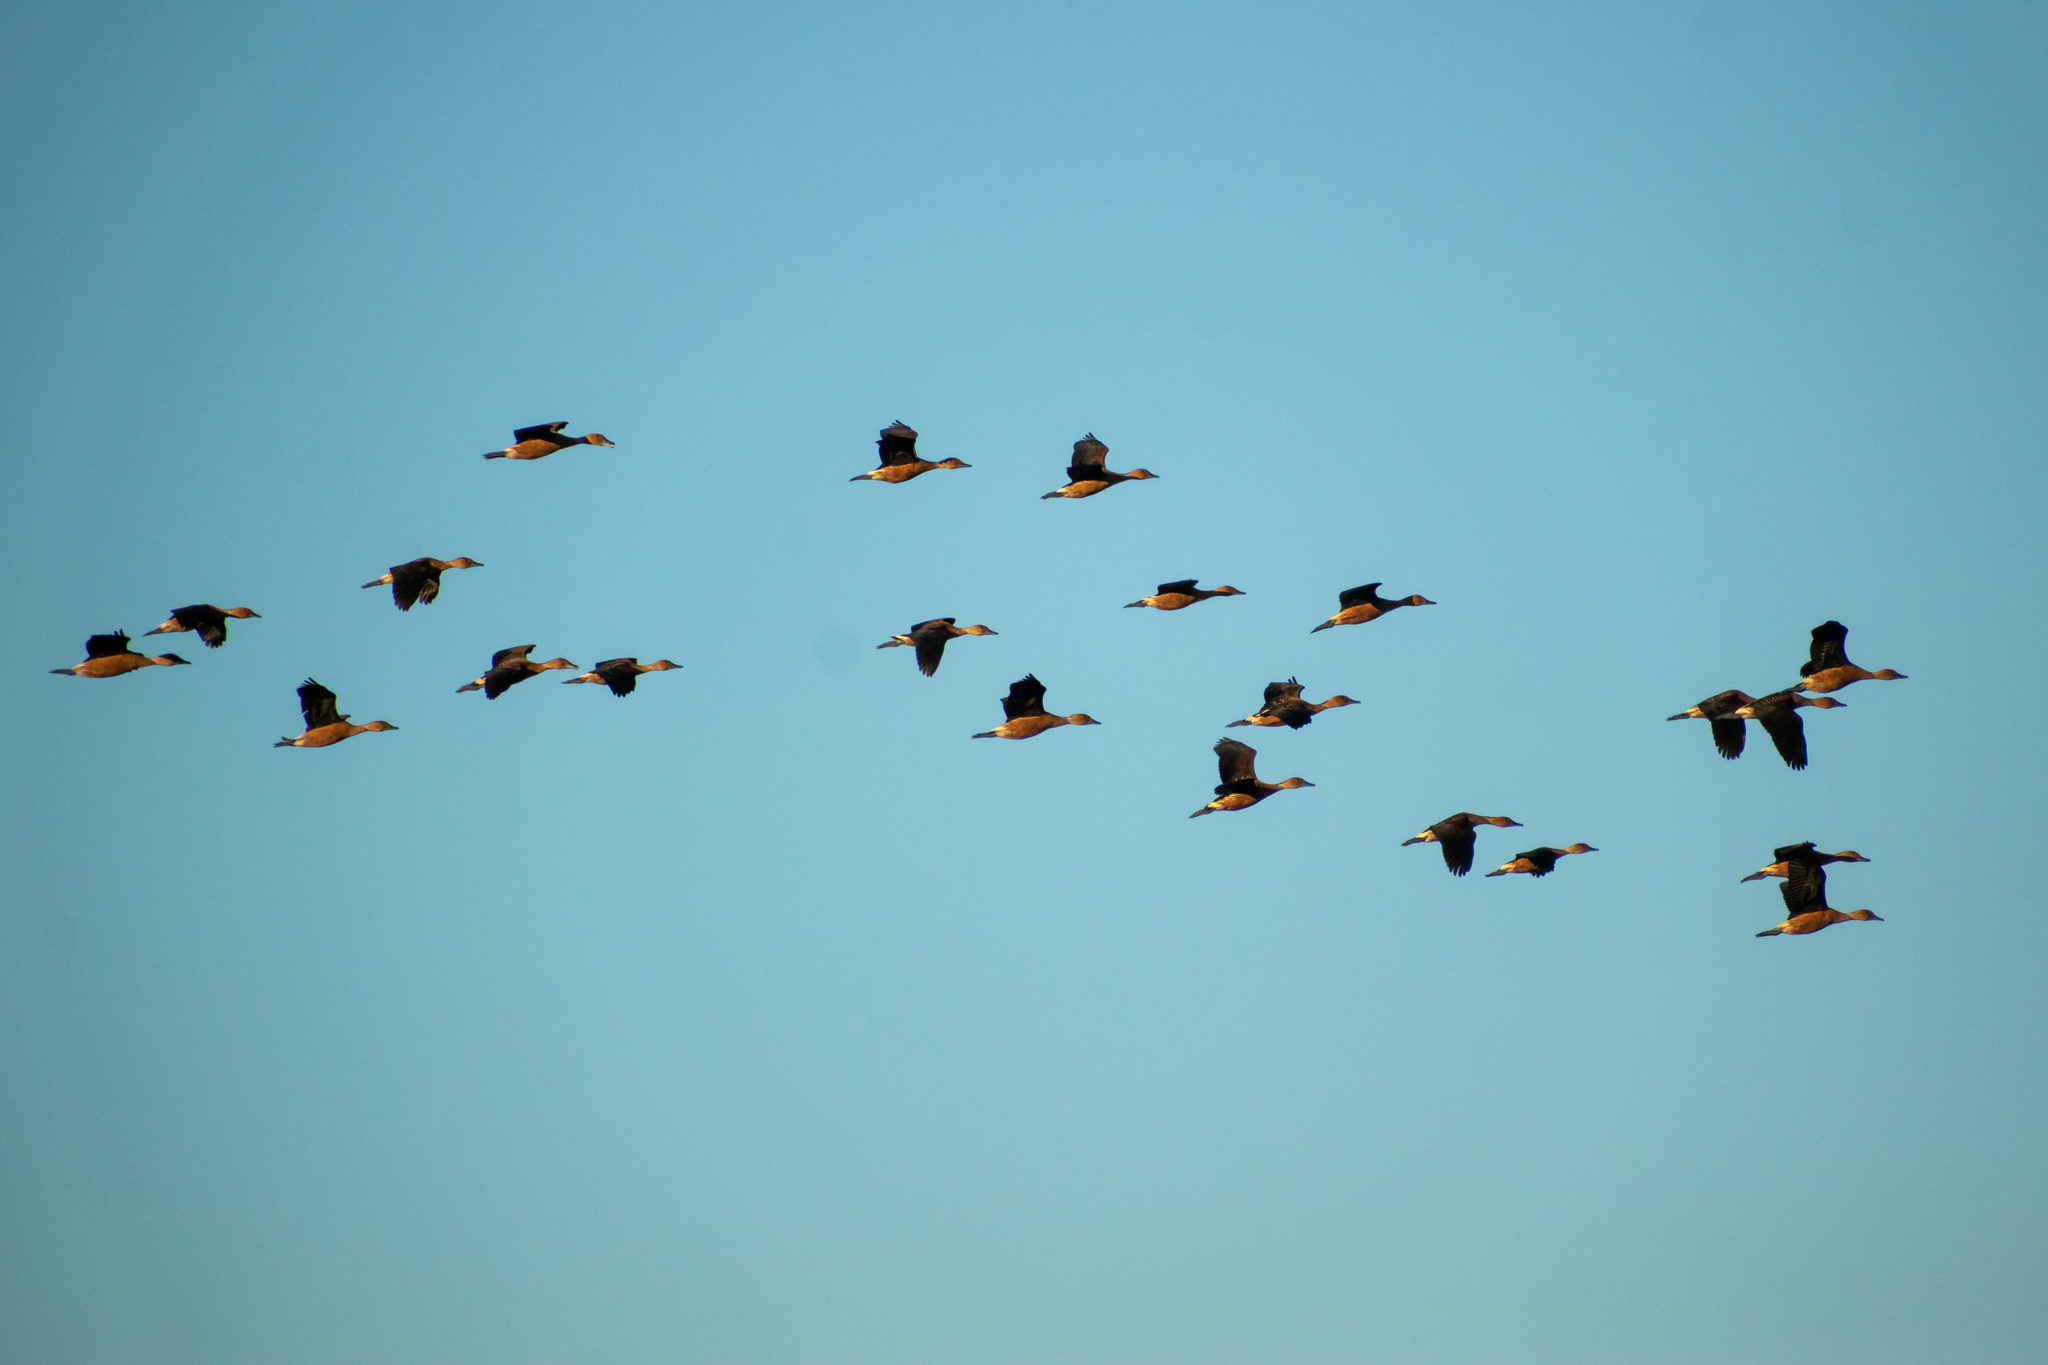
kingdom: Animalia
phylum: Chordata
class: Aves
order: Anseriformes
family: Anatidae
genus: Dendrocygna
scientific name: Dendrocygna bicolor
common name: Fulvous whistling duck
